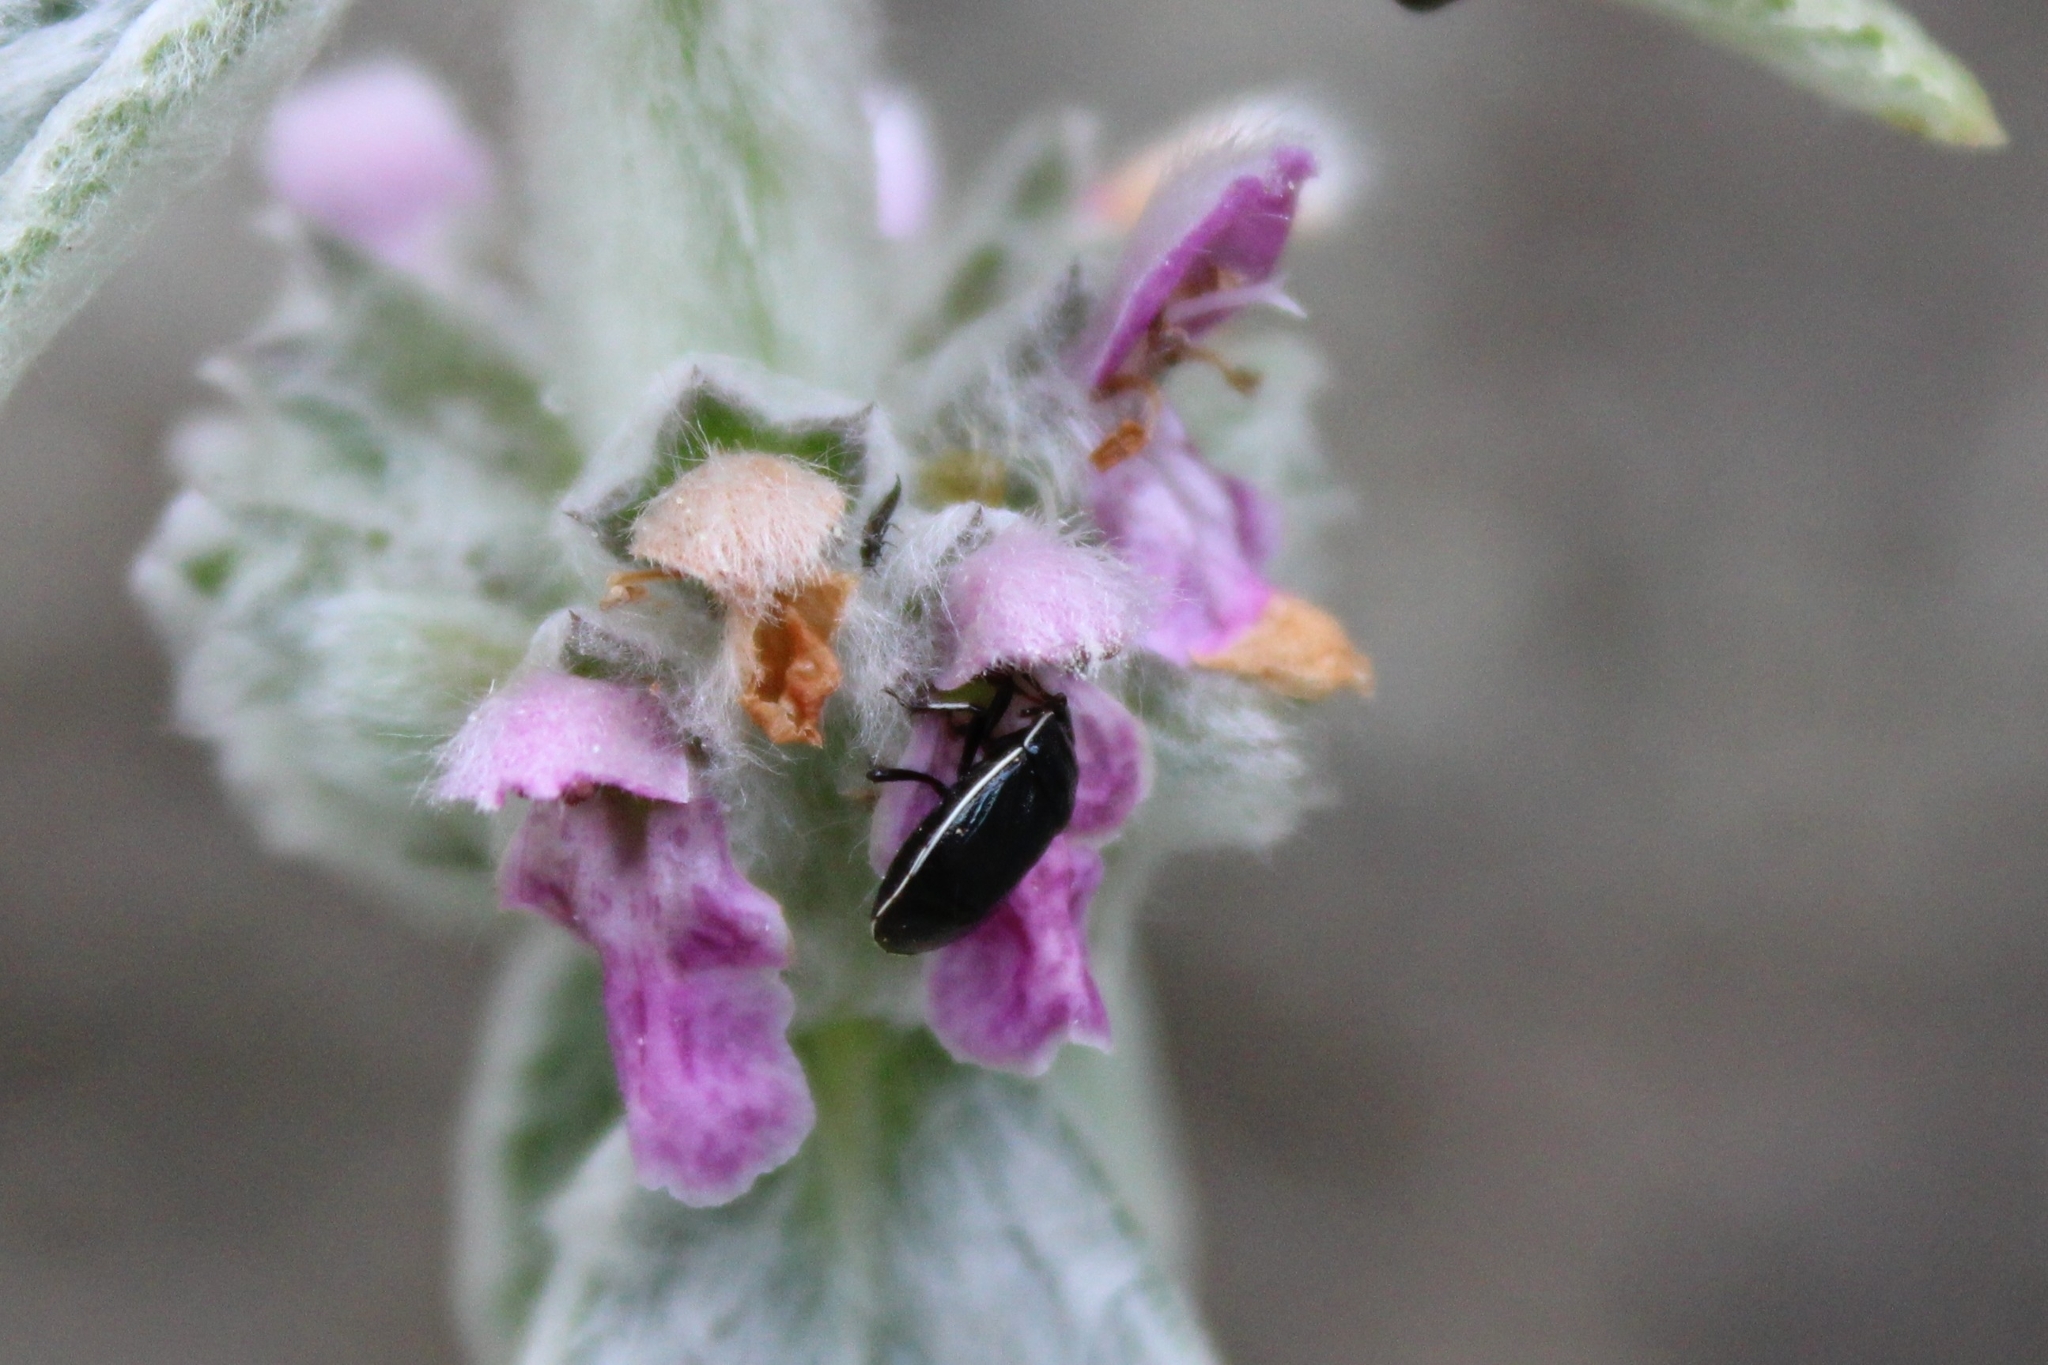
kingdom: Animalia
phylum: Arthropoda
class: Insecta
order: Hemiptera
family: Cydnidae
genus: Sehirus
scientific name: Sehirus cinctus
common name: White-margined burrower bug
